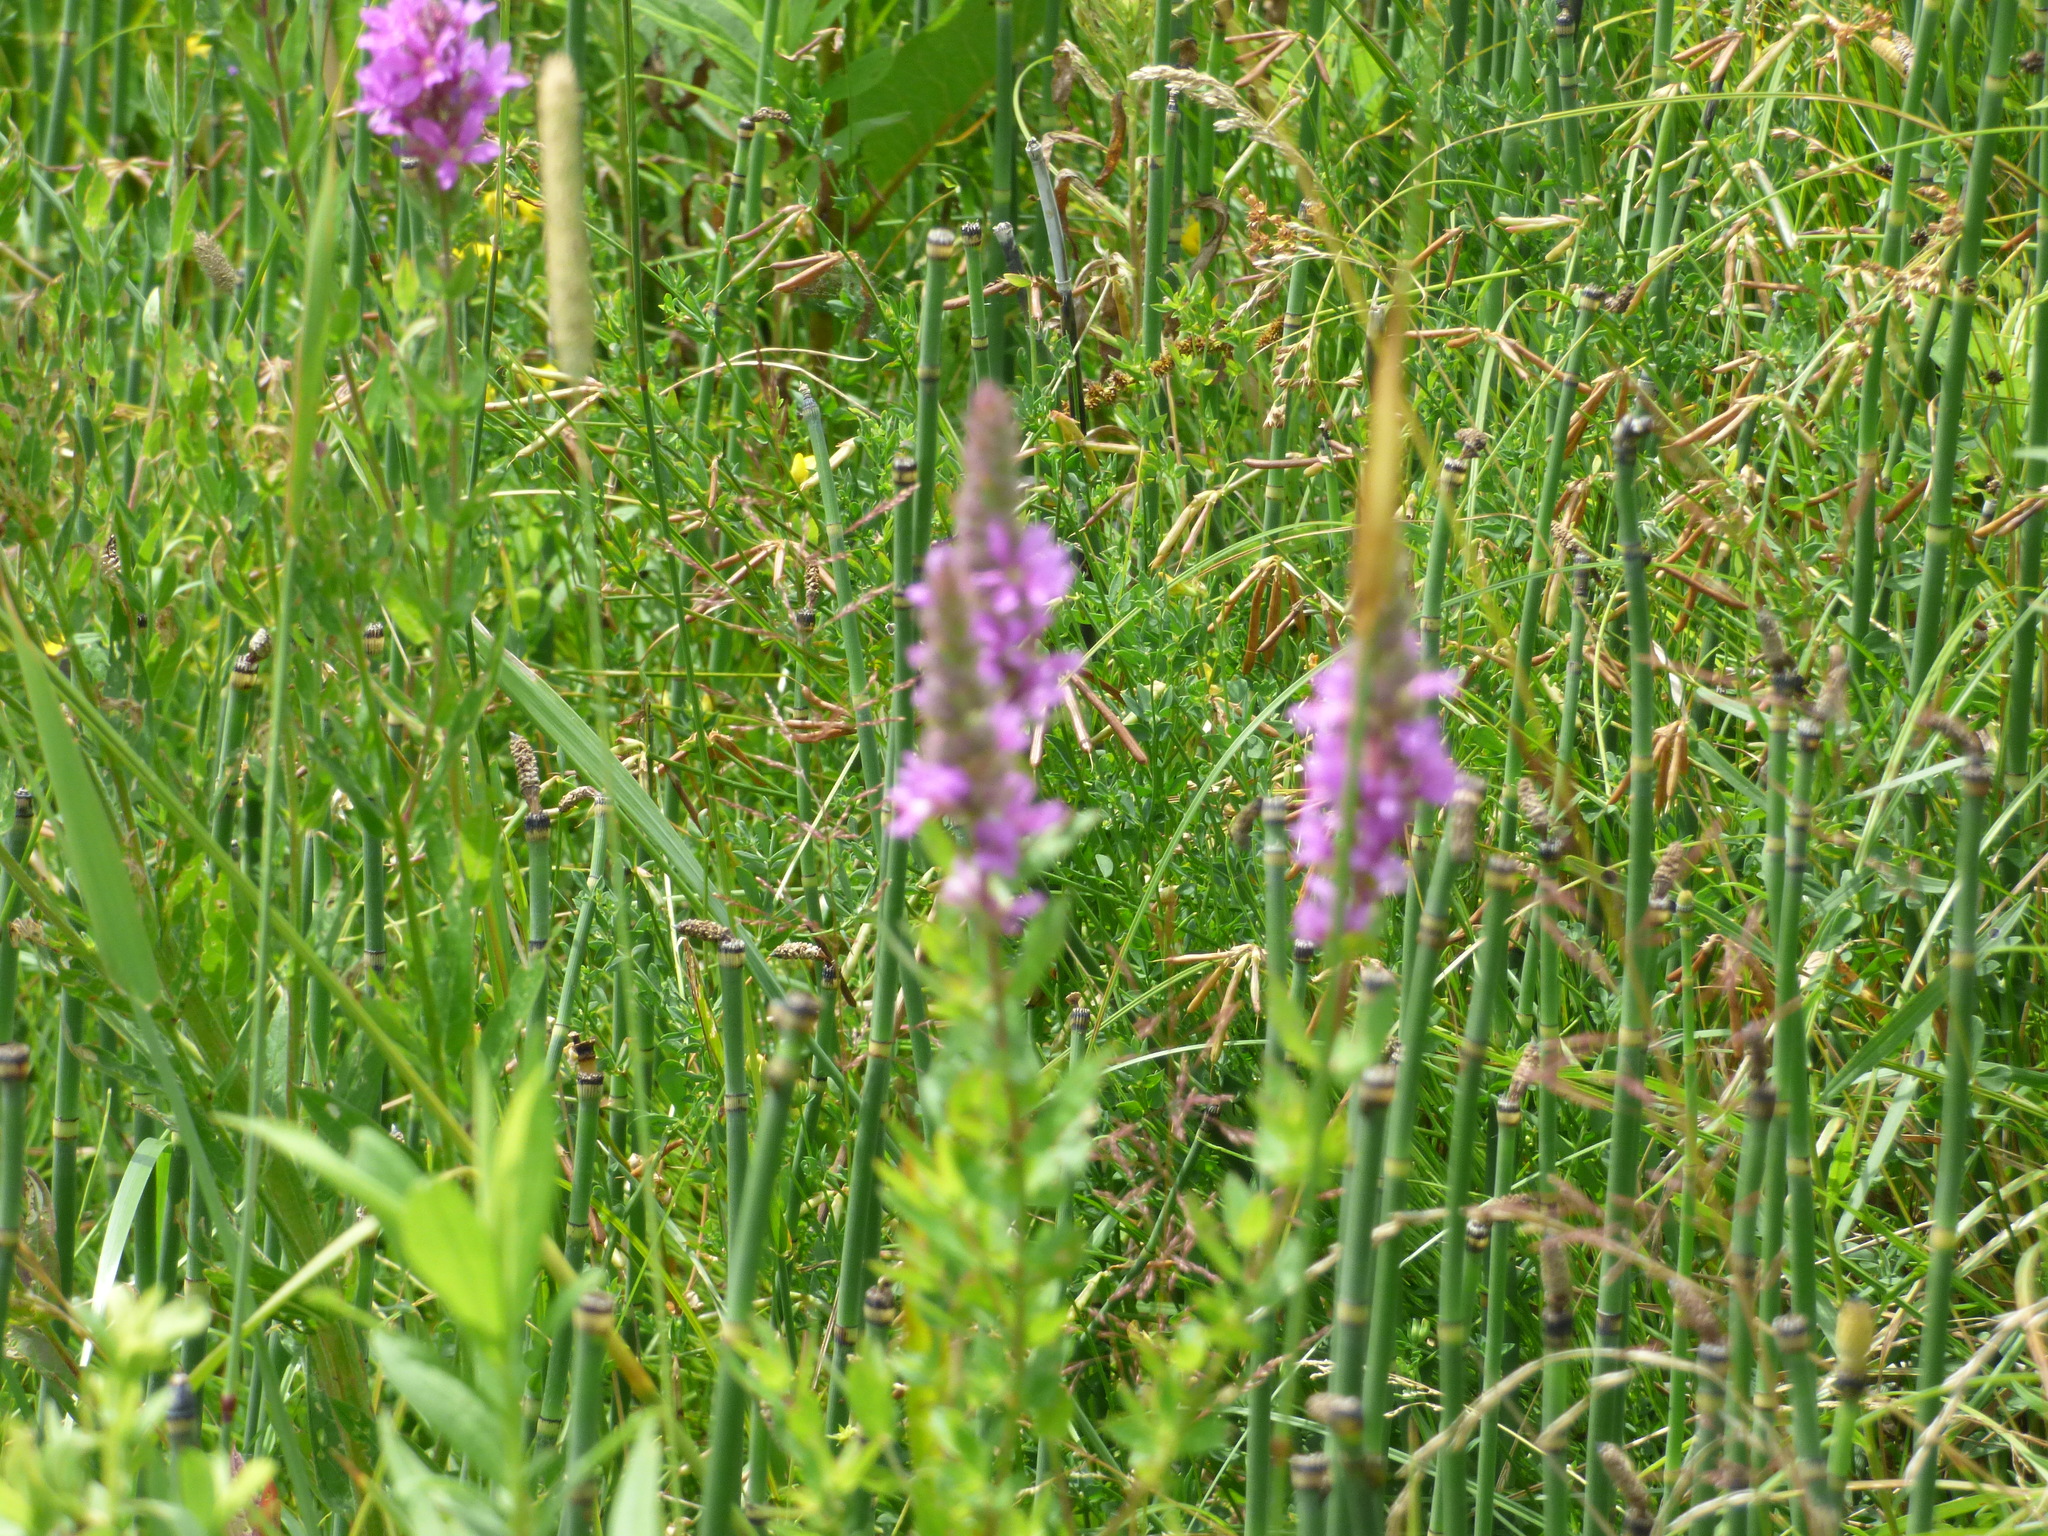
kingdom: Plantae
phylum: Tracheophyta
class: Magnoliopsida
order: Myrtales
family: Lythraceae
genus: Lythrum
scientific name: Lythrum salicaria
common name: Purple loosestrife
